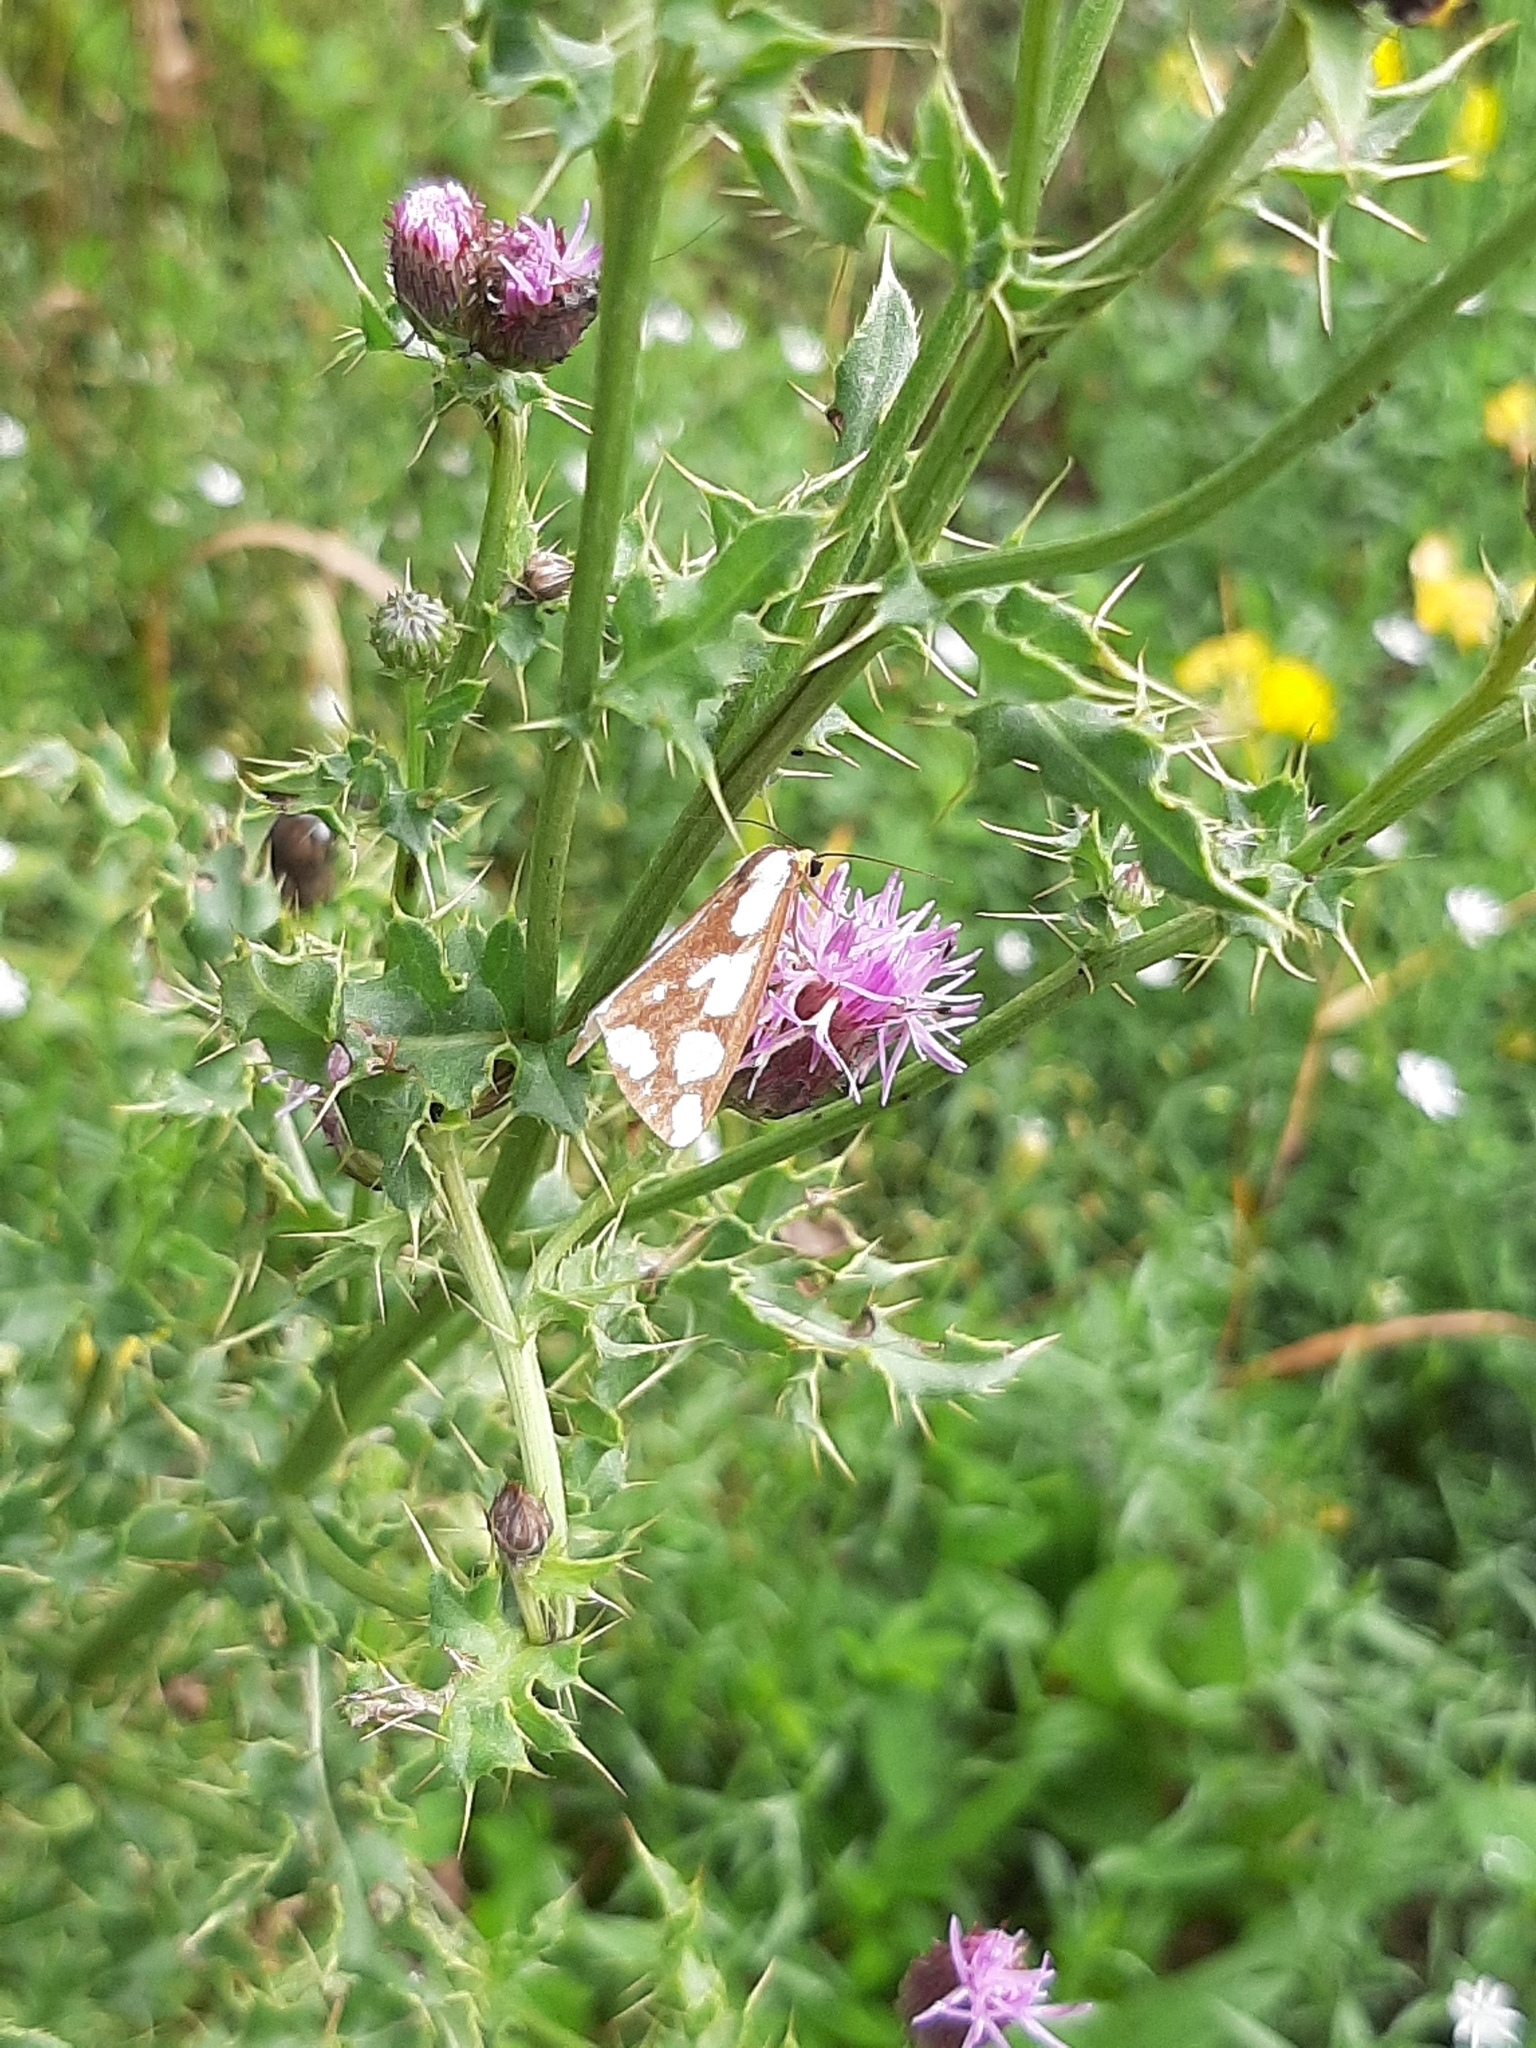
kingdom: Animalia
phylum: Arthropoda
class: Insecta
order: Lepidoptera
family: Erebidae
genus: Haploa
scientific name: Haploa confusa
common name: Confused haploa moth
